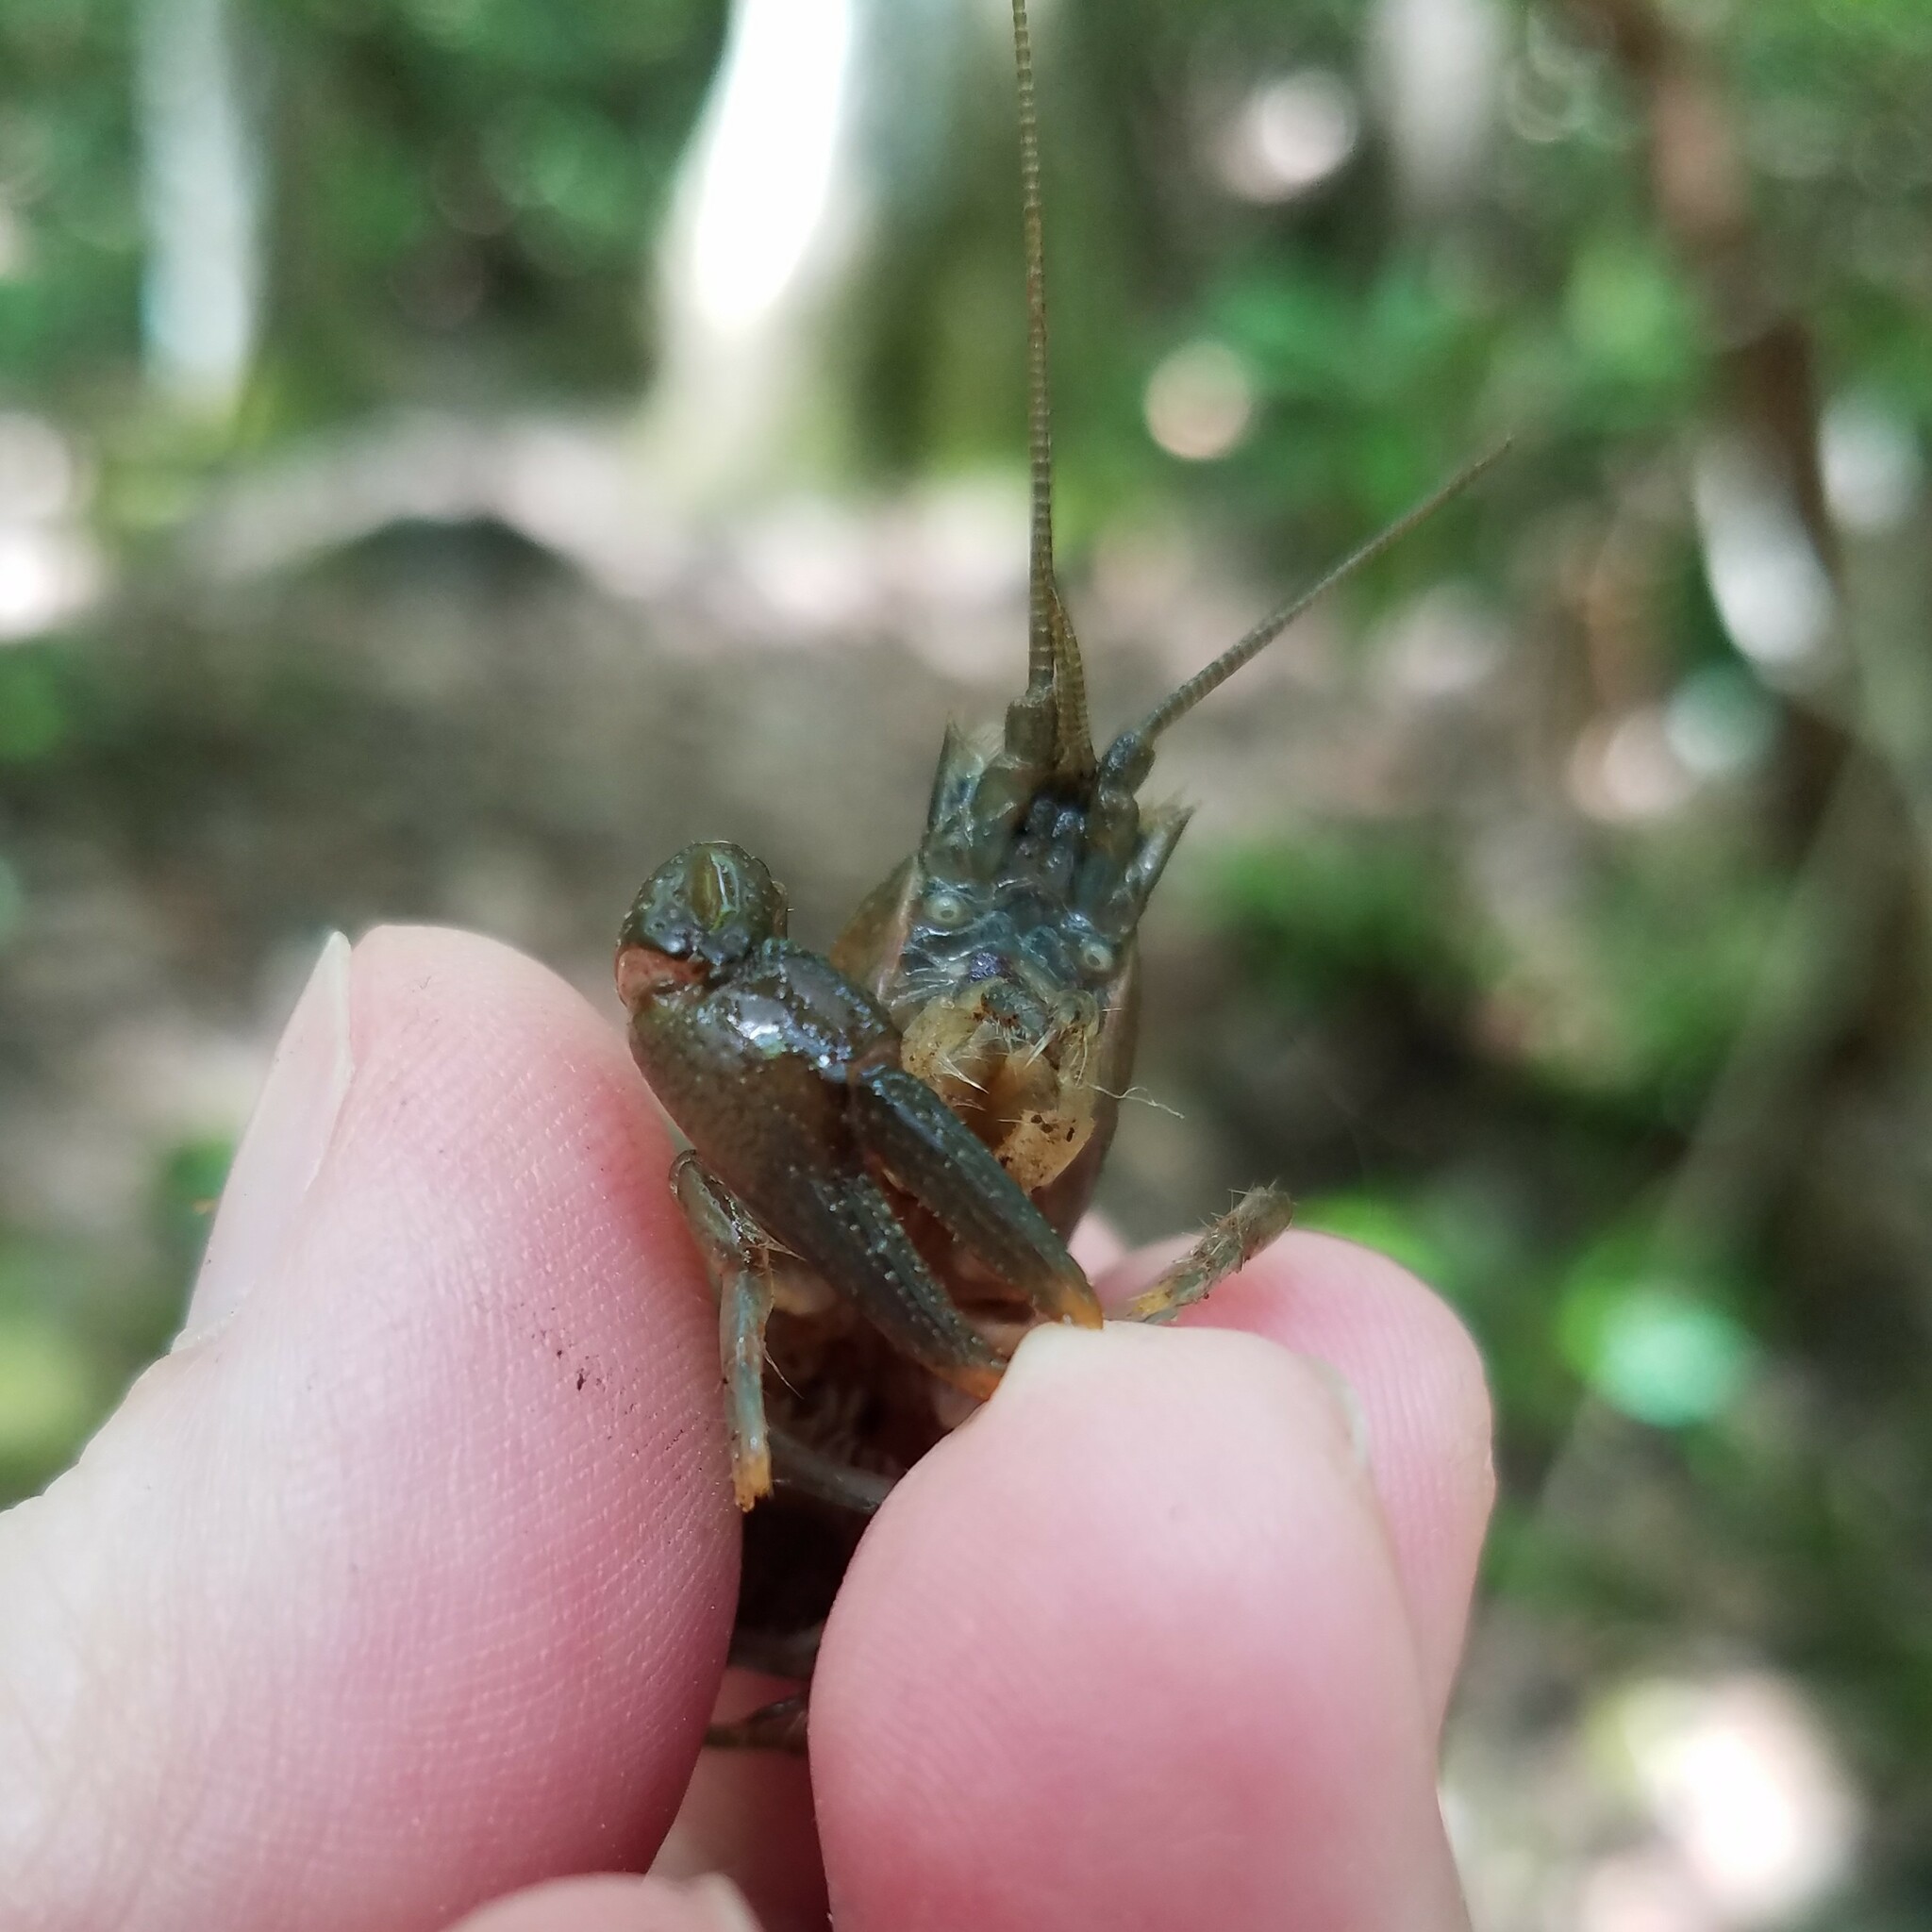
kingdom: Animalia
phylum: Arthropoda
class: Malacostraca
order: Decapoda
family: Cambaridae
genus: Cambarus
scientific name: Cambarus nodosus
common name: Knotty burrowing crayfish
